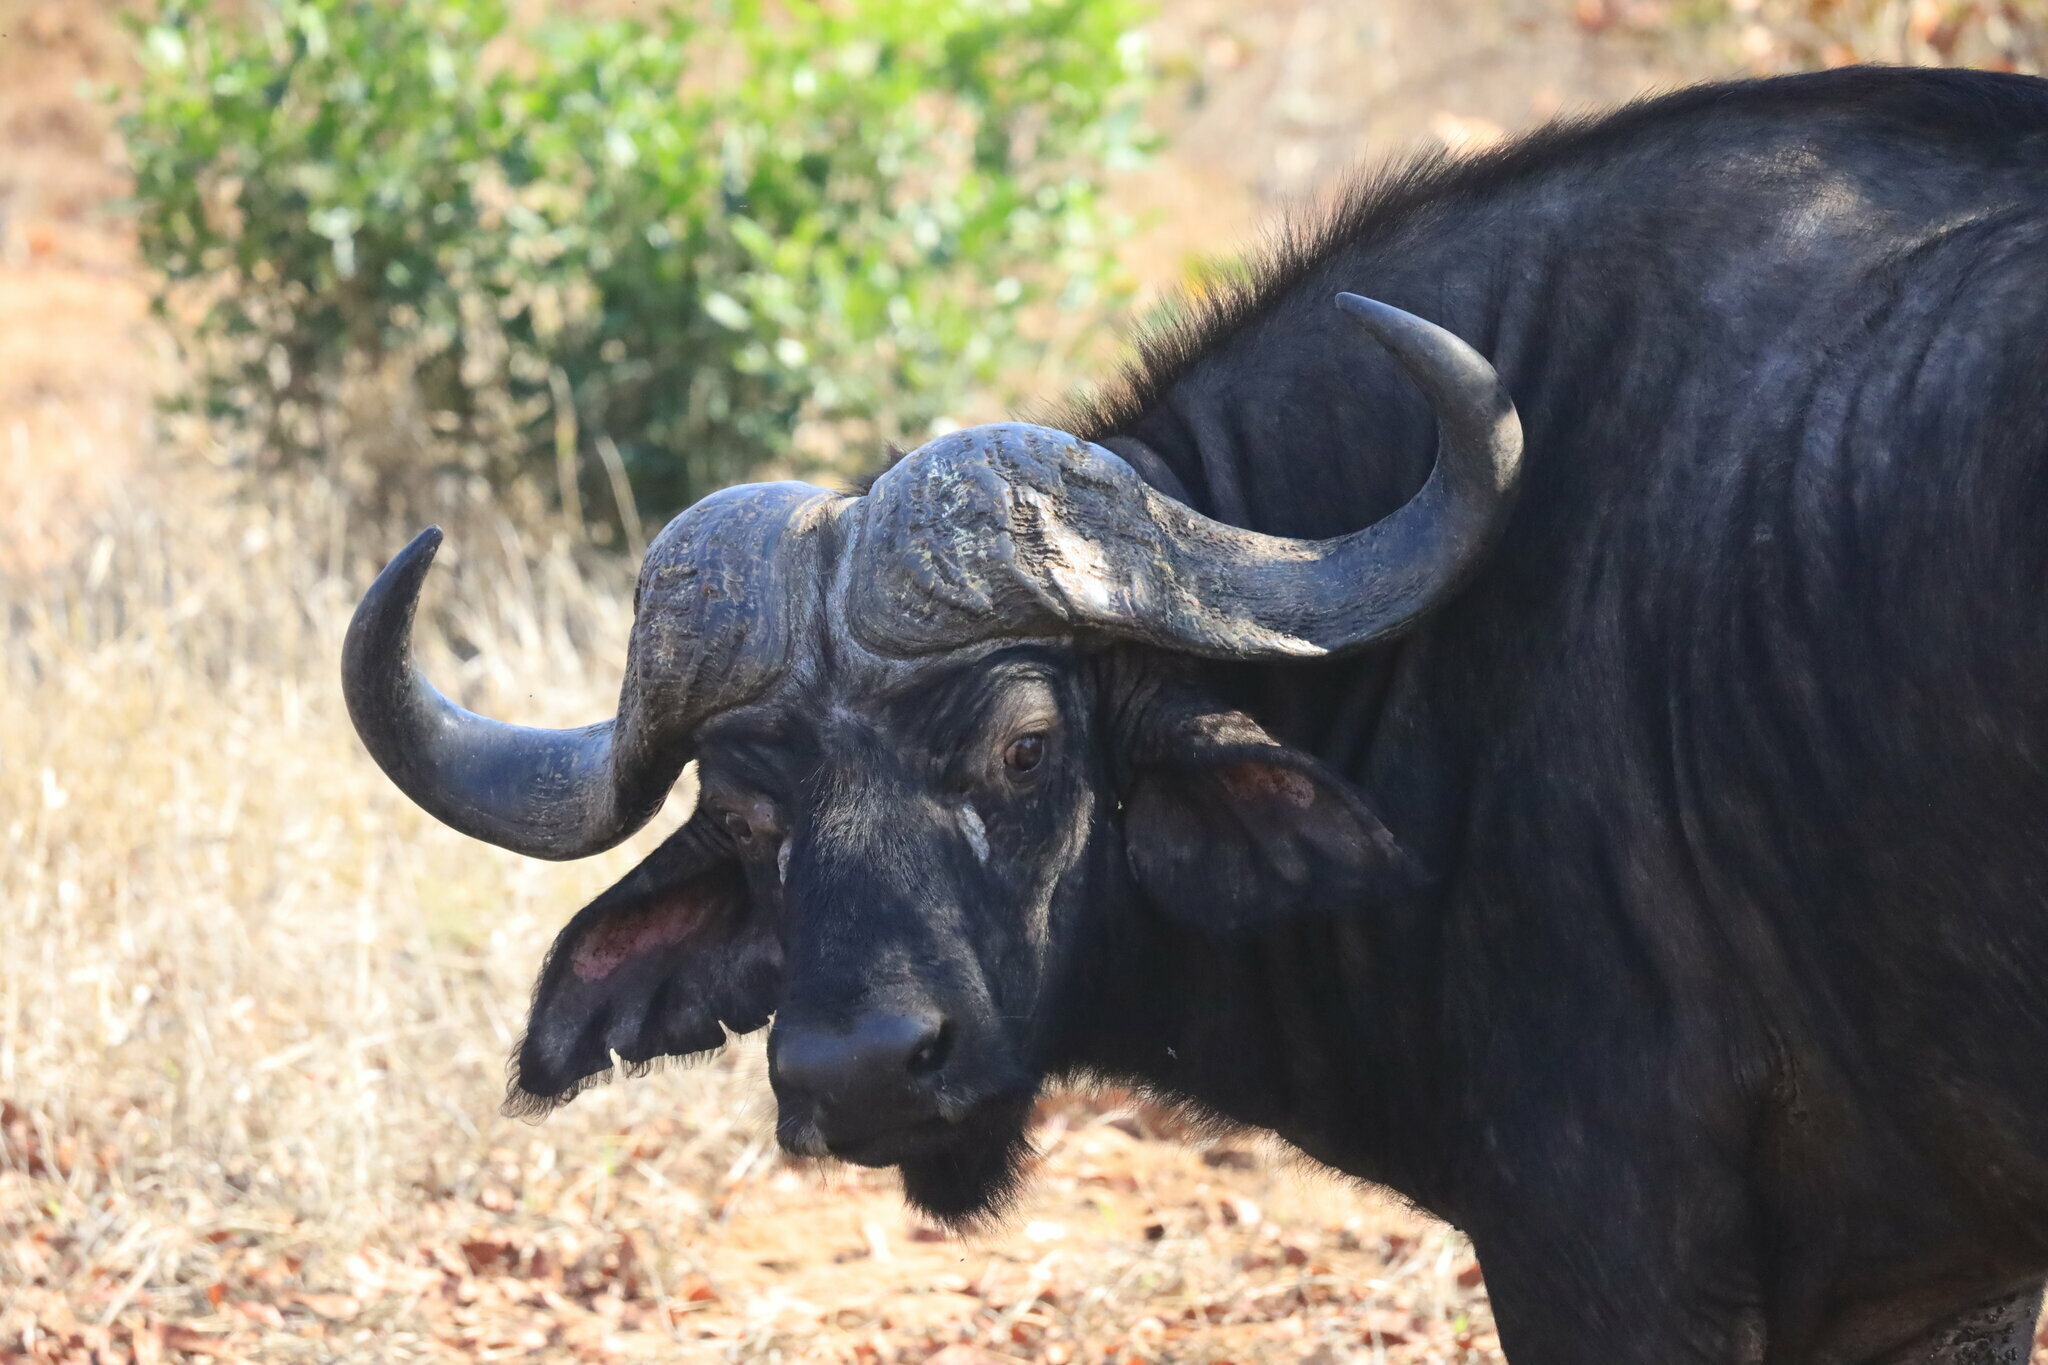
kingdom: Animalia
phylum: Chordata
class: Mammalia
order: Artiodactyla
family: Bovidae
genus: Syncerus
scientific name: Syncerus caffer
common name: African buffalo
